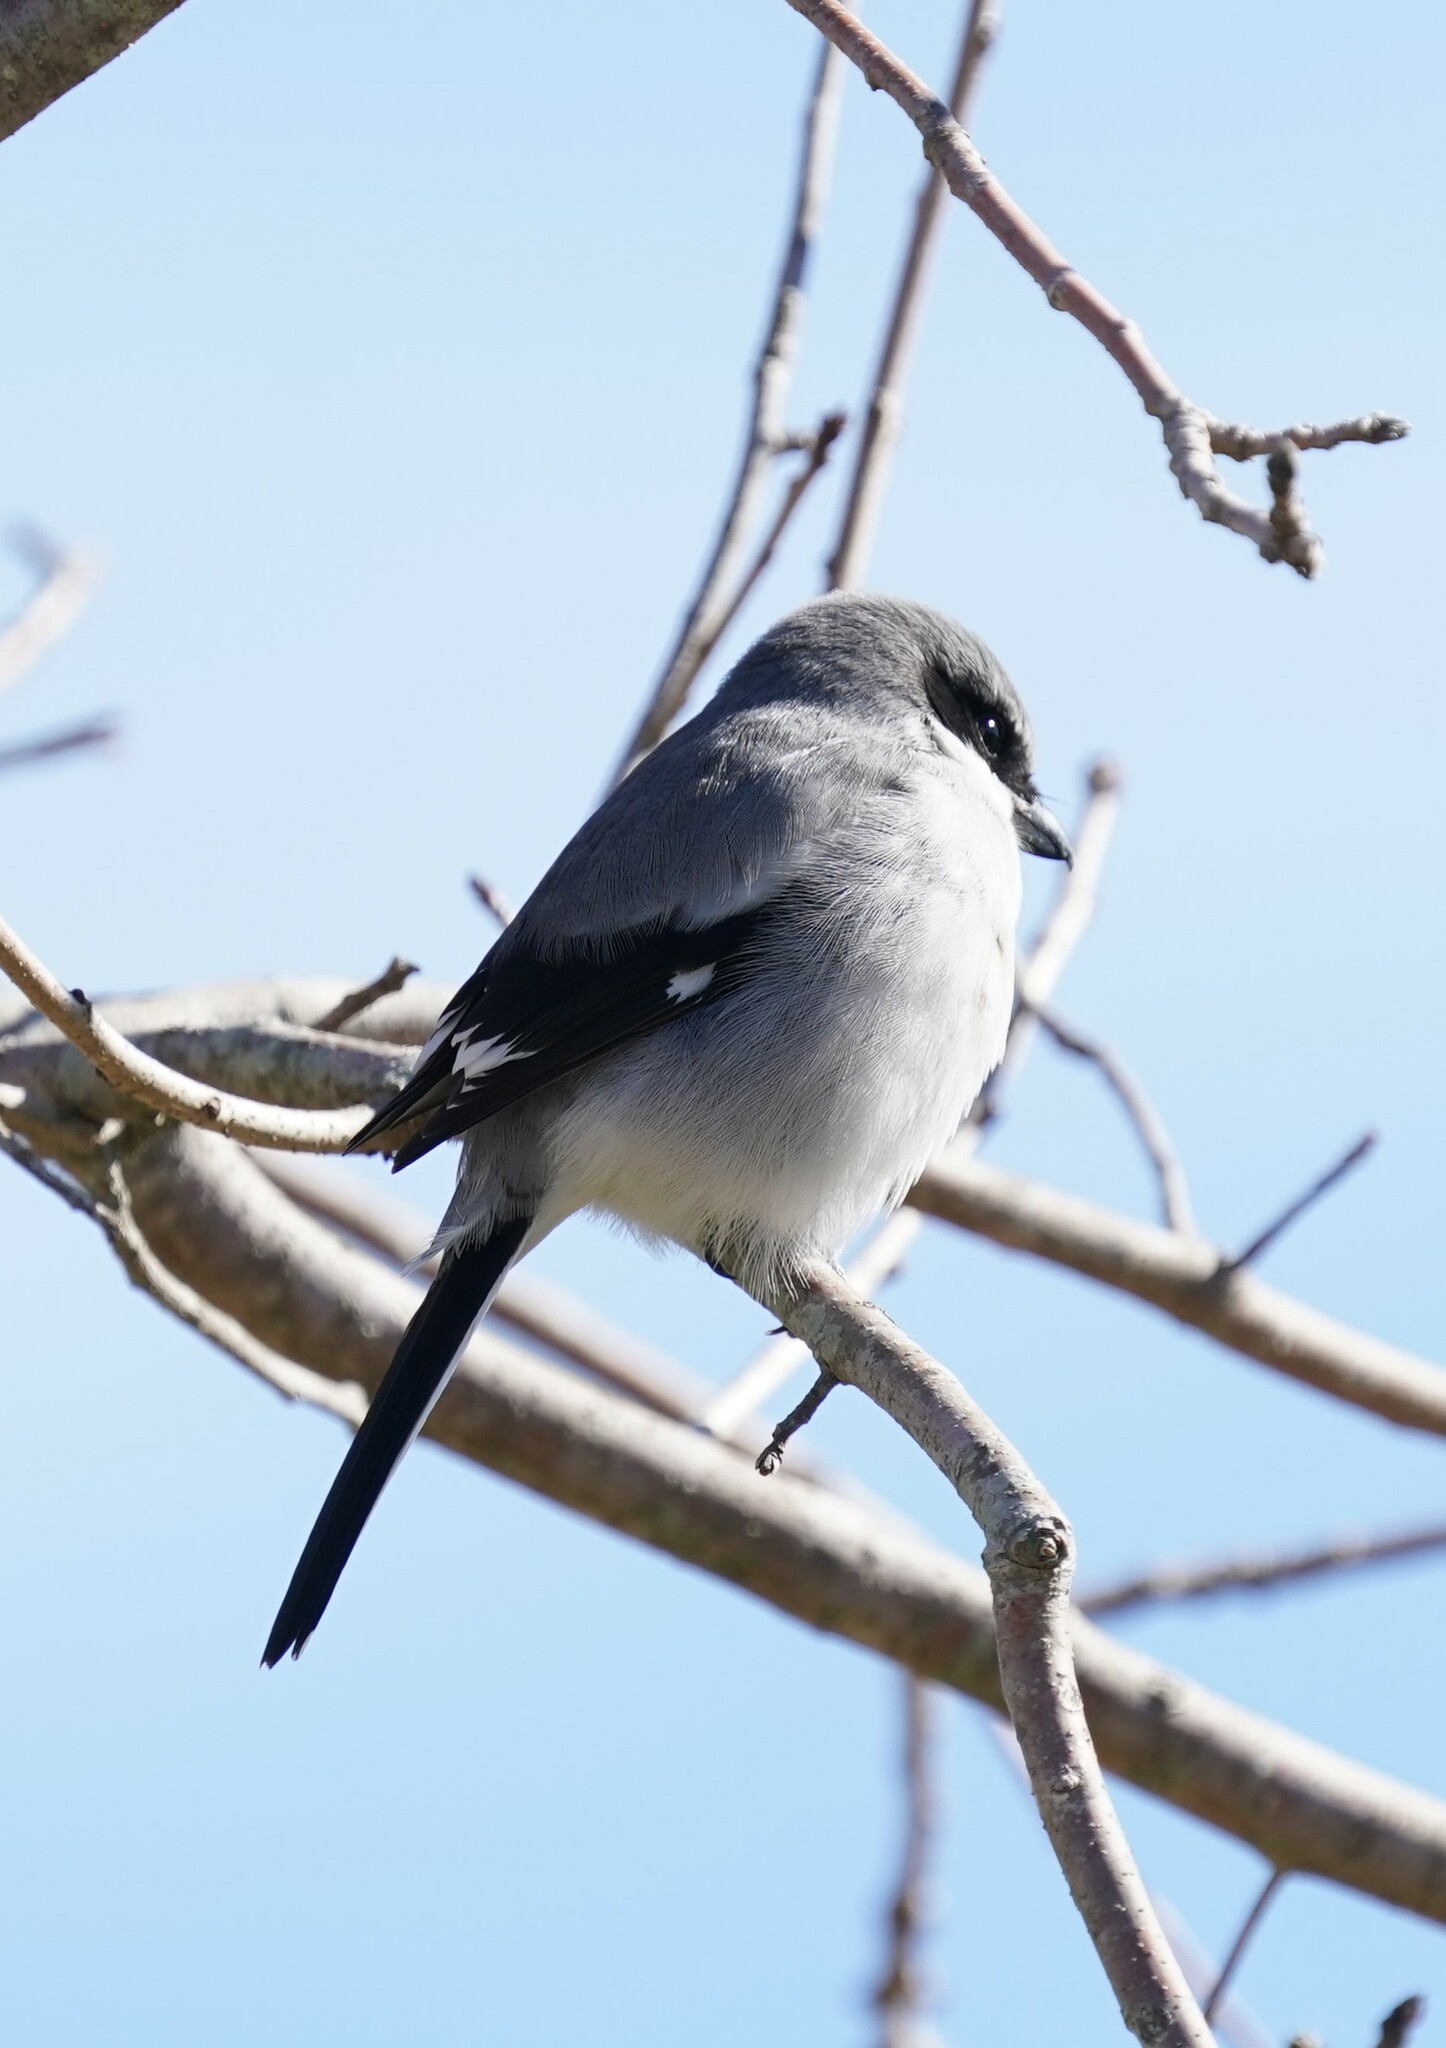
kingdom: Animalia
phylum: Chordata
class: Aves
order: Passeriformes
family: Laniidae
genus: Lanius
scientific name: Lanius ludovicianus
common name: Loggerhead shrike
